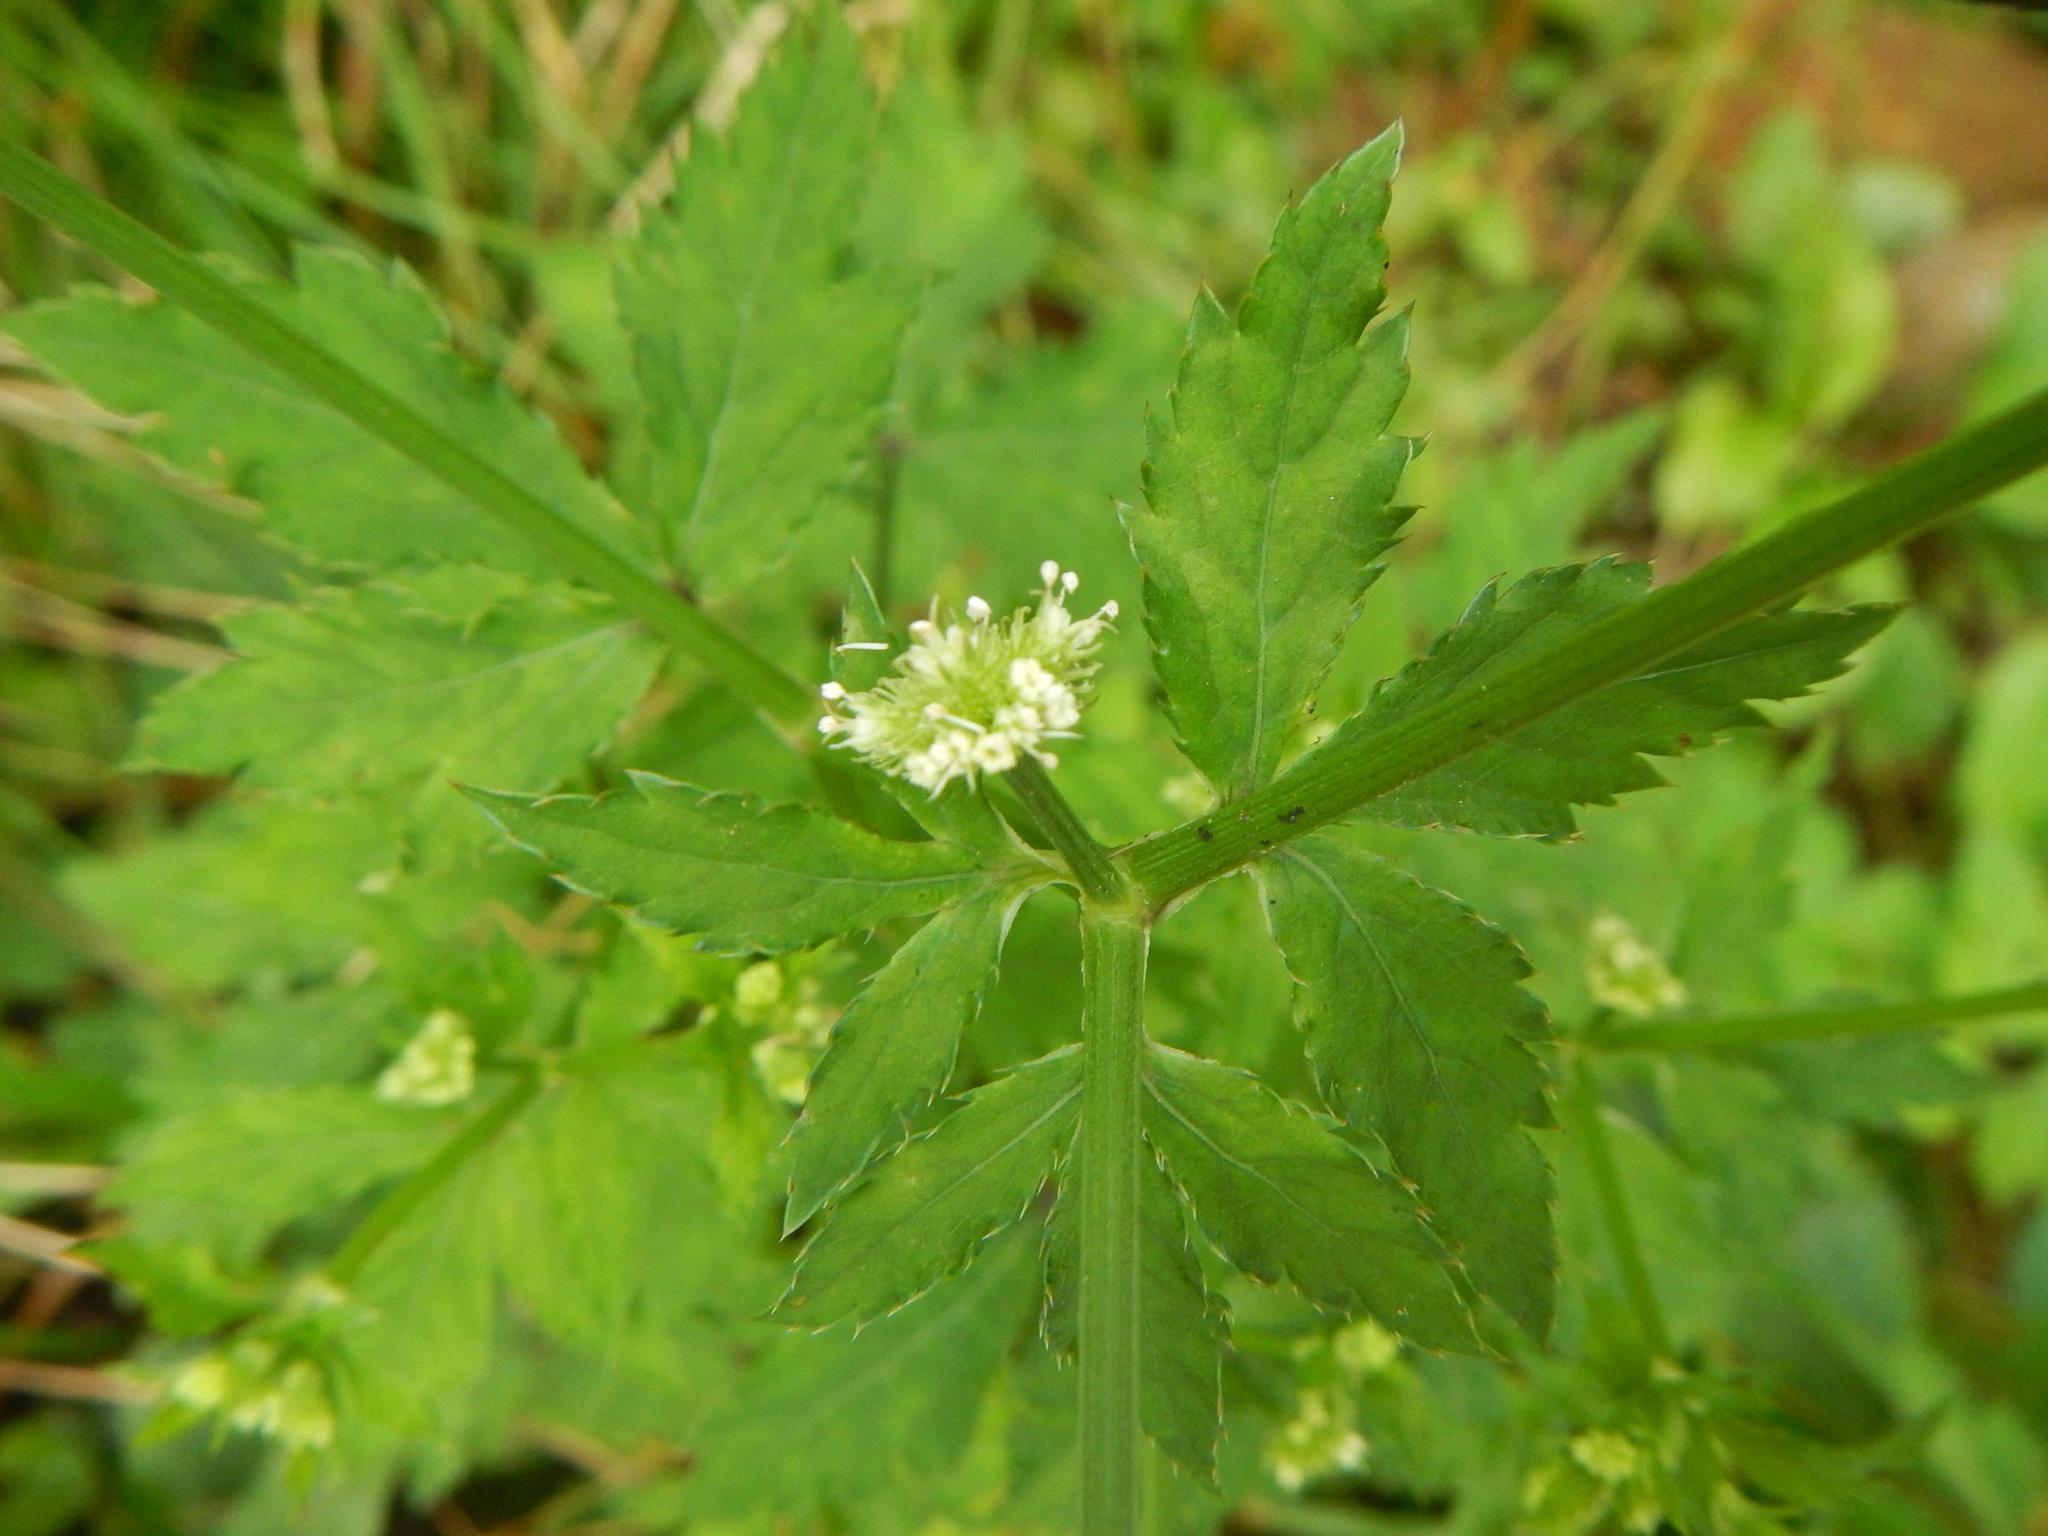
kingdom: Plantae
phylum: Tracheophyta
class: Magnoliopsida
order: Apiales
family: Apiaceae
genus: Sanicula
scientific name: Sanicula chinensis
